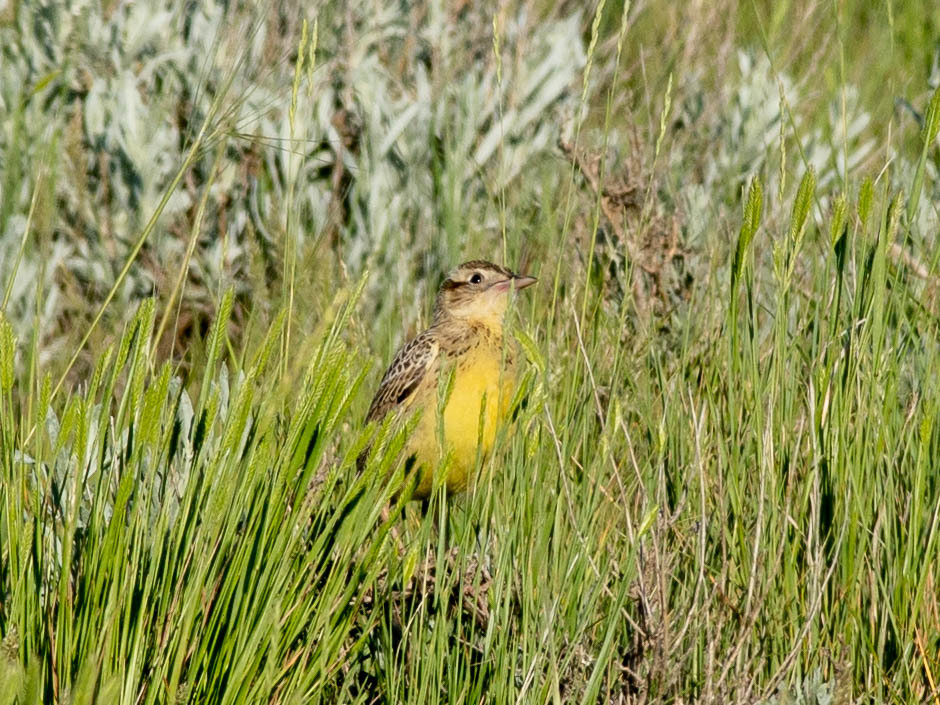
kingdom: Animalia
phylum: Chordata
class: Aves
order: Passeriformes
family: Icteridae
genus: Sturnella
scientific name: Sturnella neglecta
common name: Western meadowlark
